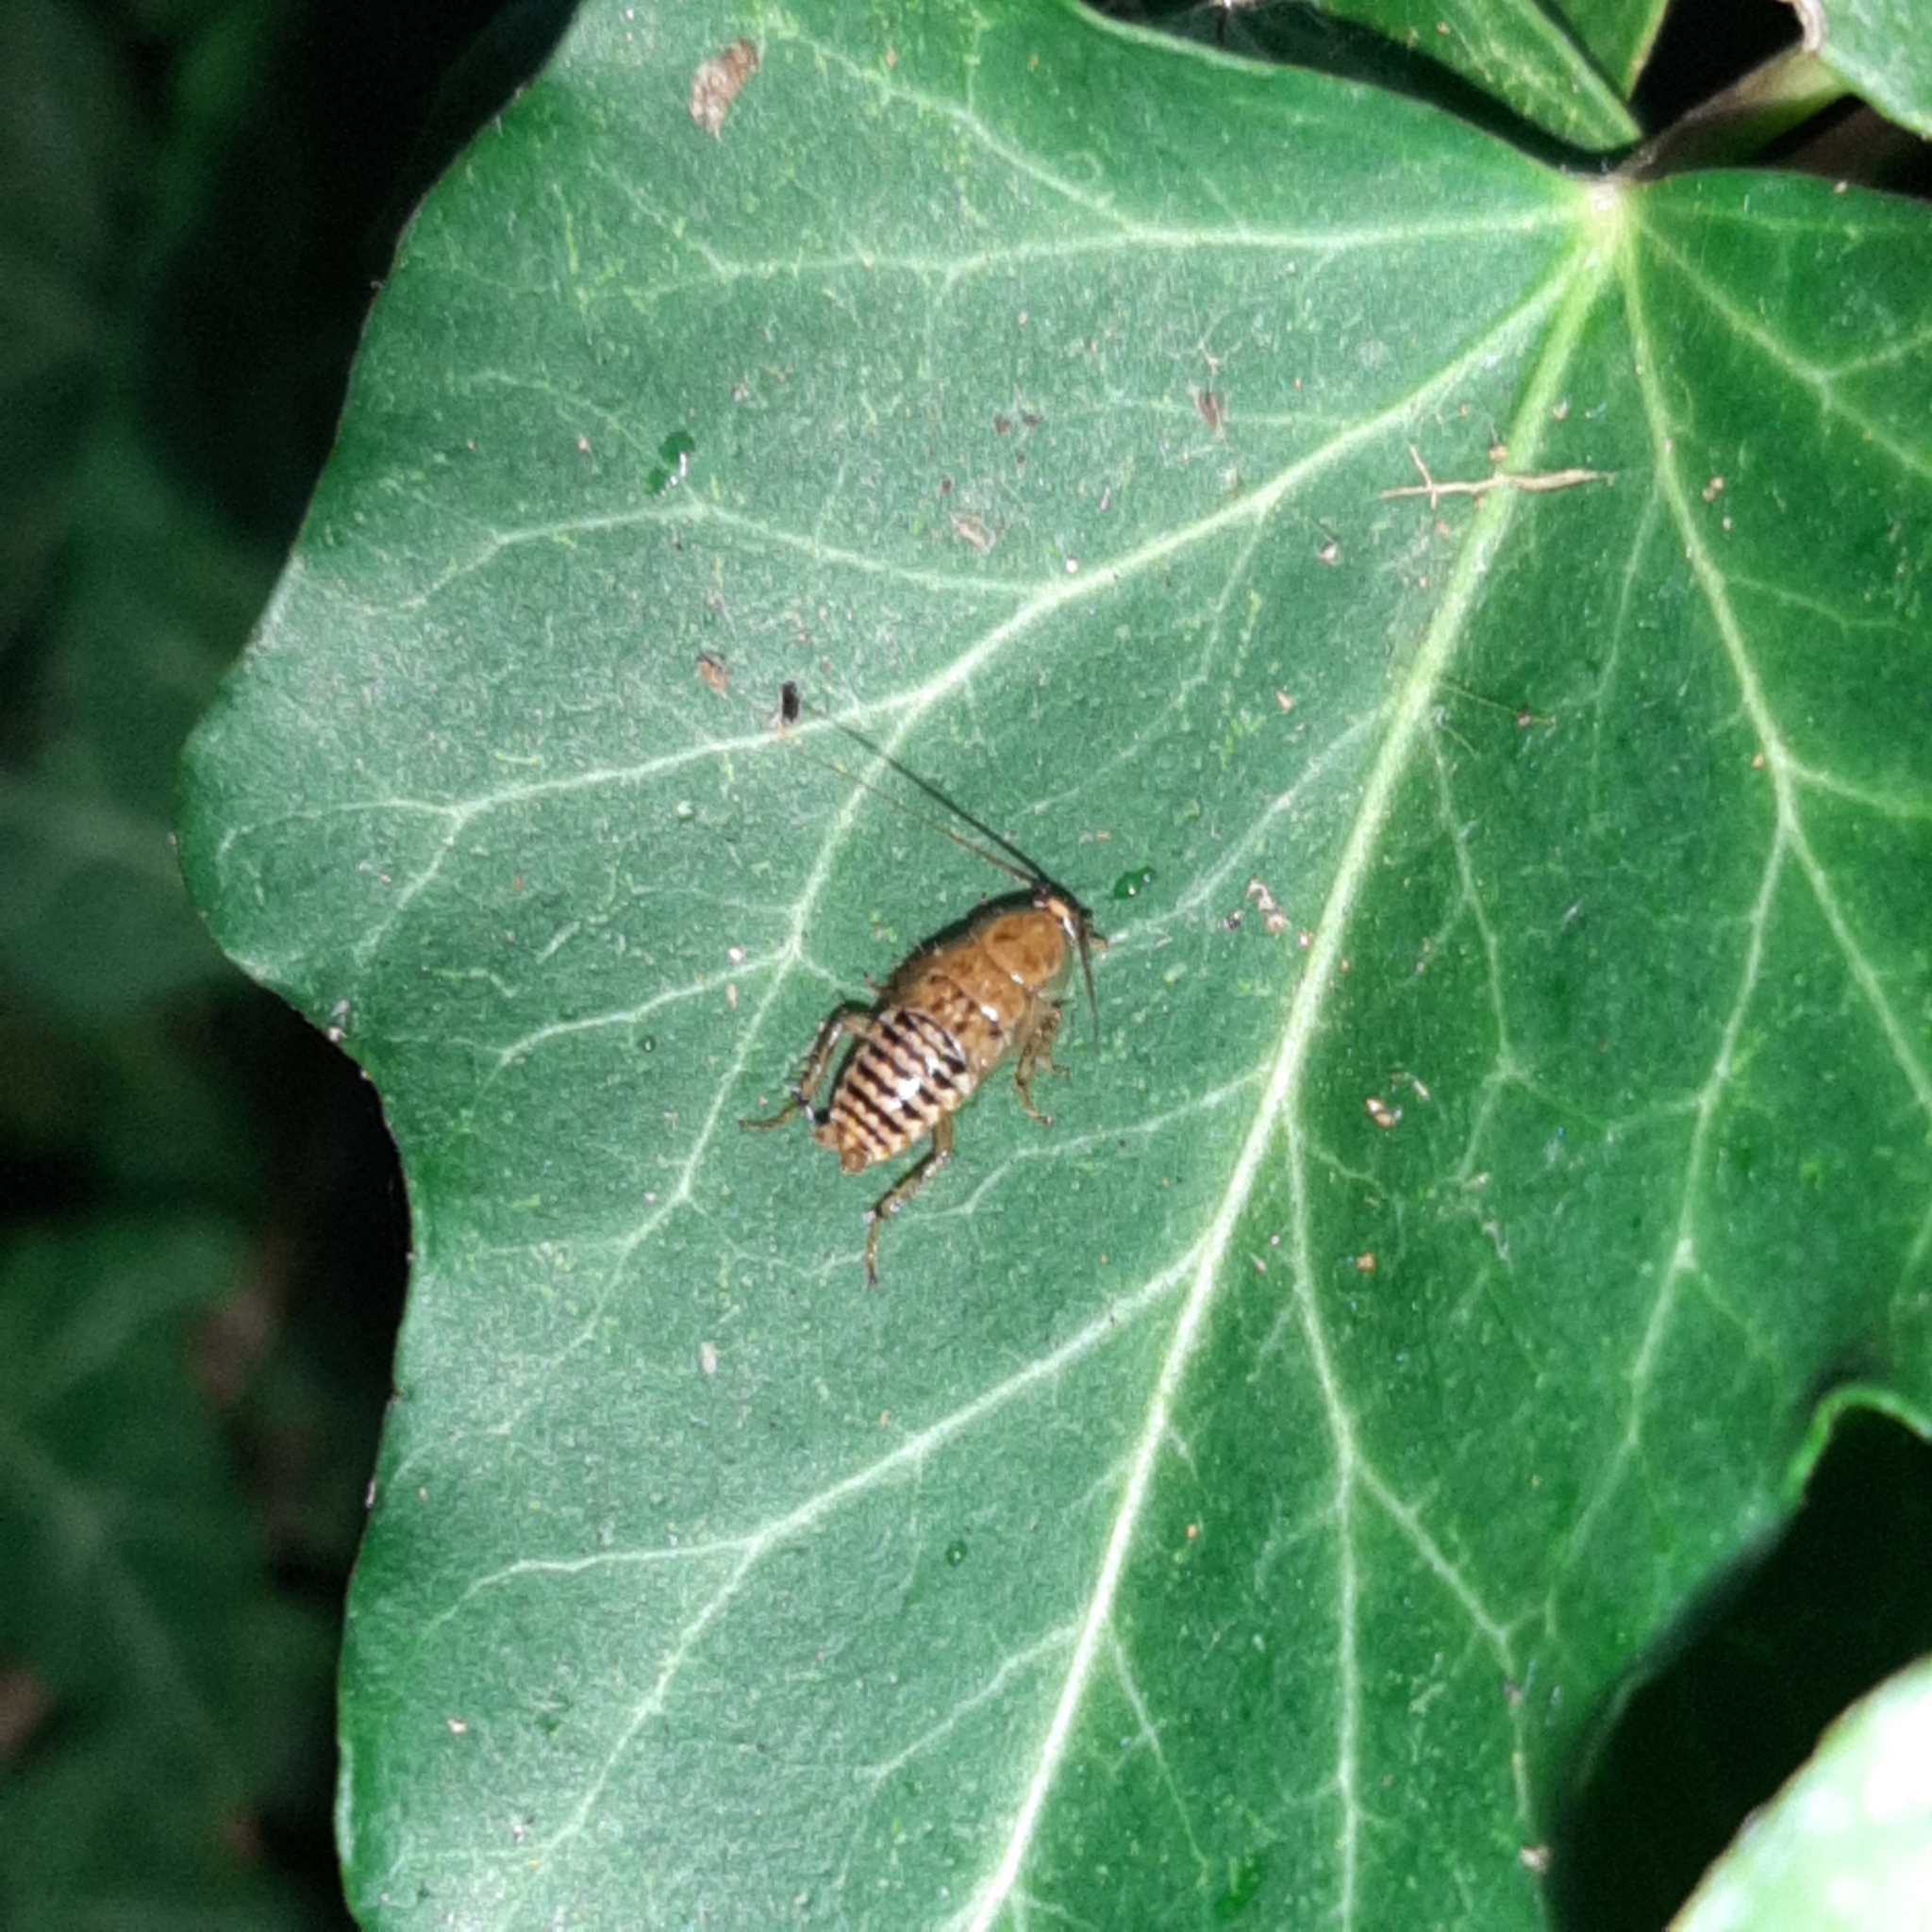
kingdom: Animalia
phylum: Arthropoda
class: Insecta
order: Blattodea
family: Ectobiidae
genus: Ectobius
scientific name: Ectobius vittiventris
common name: Garden cockroach
